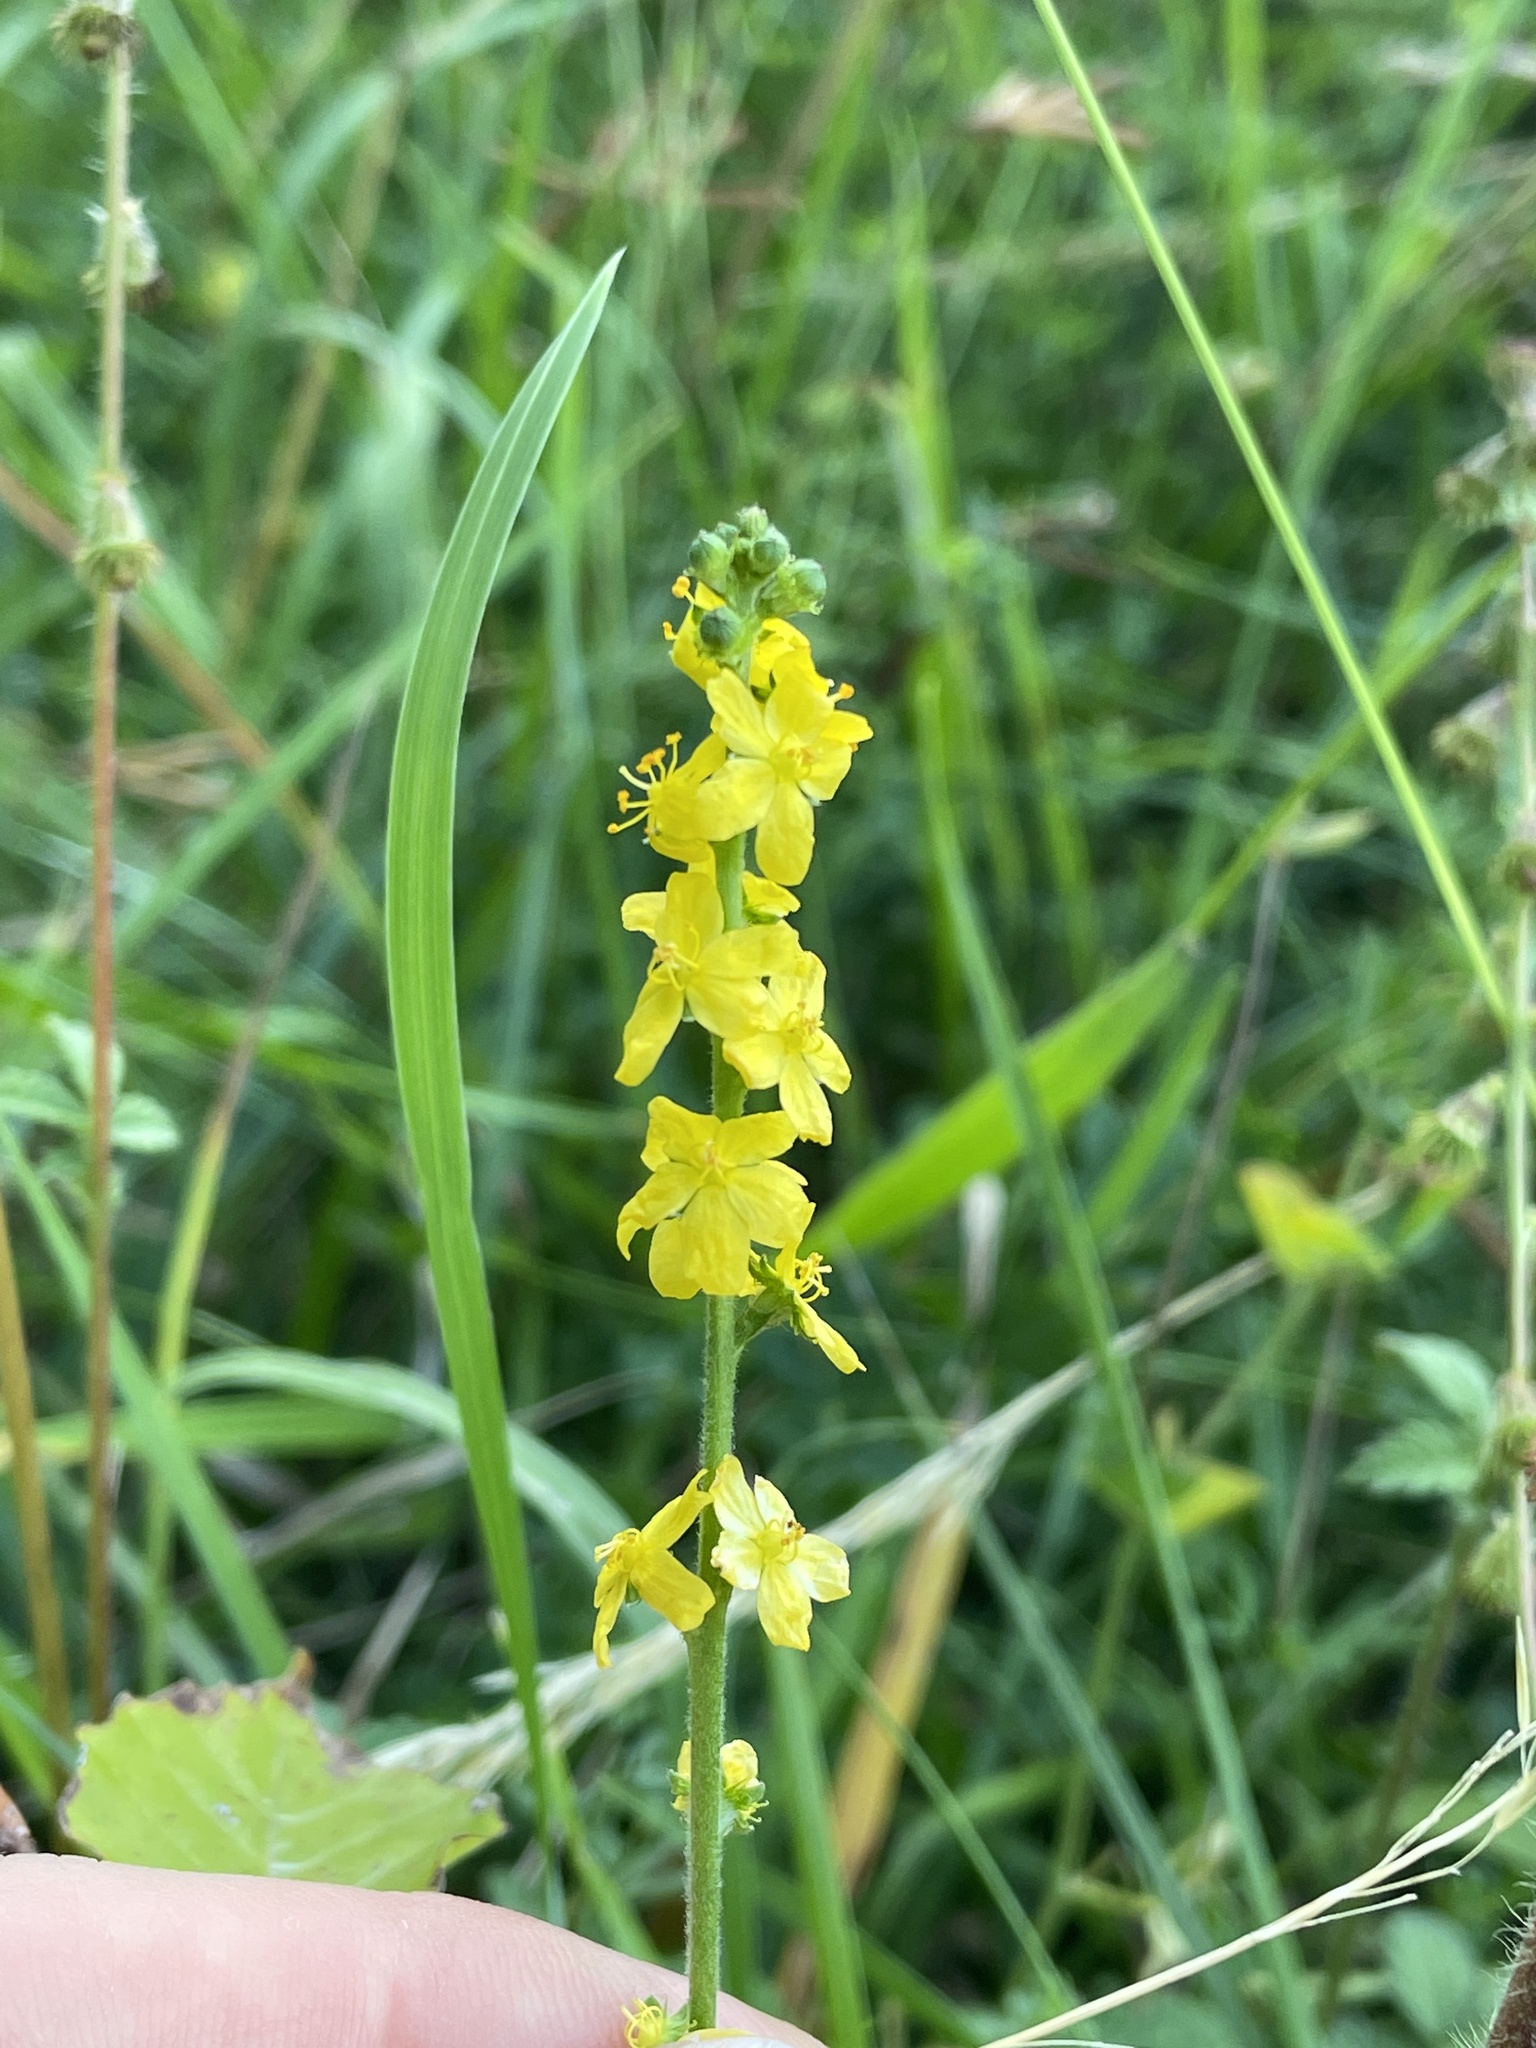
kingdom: Plantae
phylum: Tracheophyta
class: Magnoliopsida
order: Rosales
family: Rosaceae
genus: Agrimonia
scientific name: Agrimonia eupatoria
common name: Agrimony
